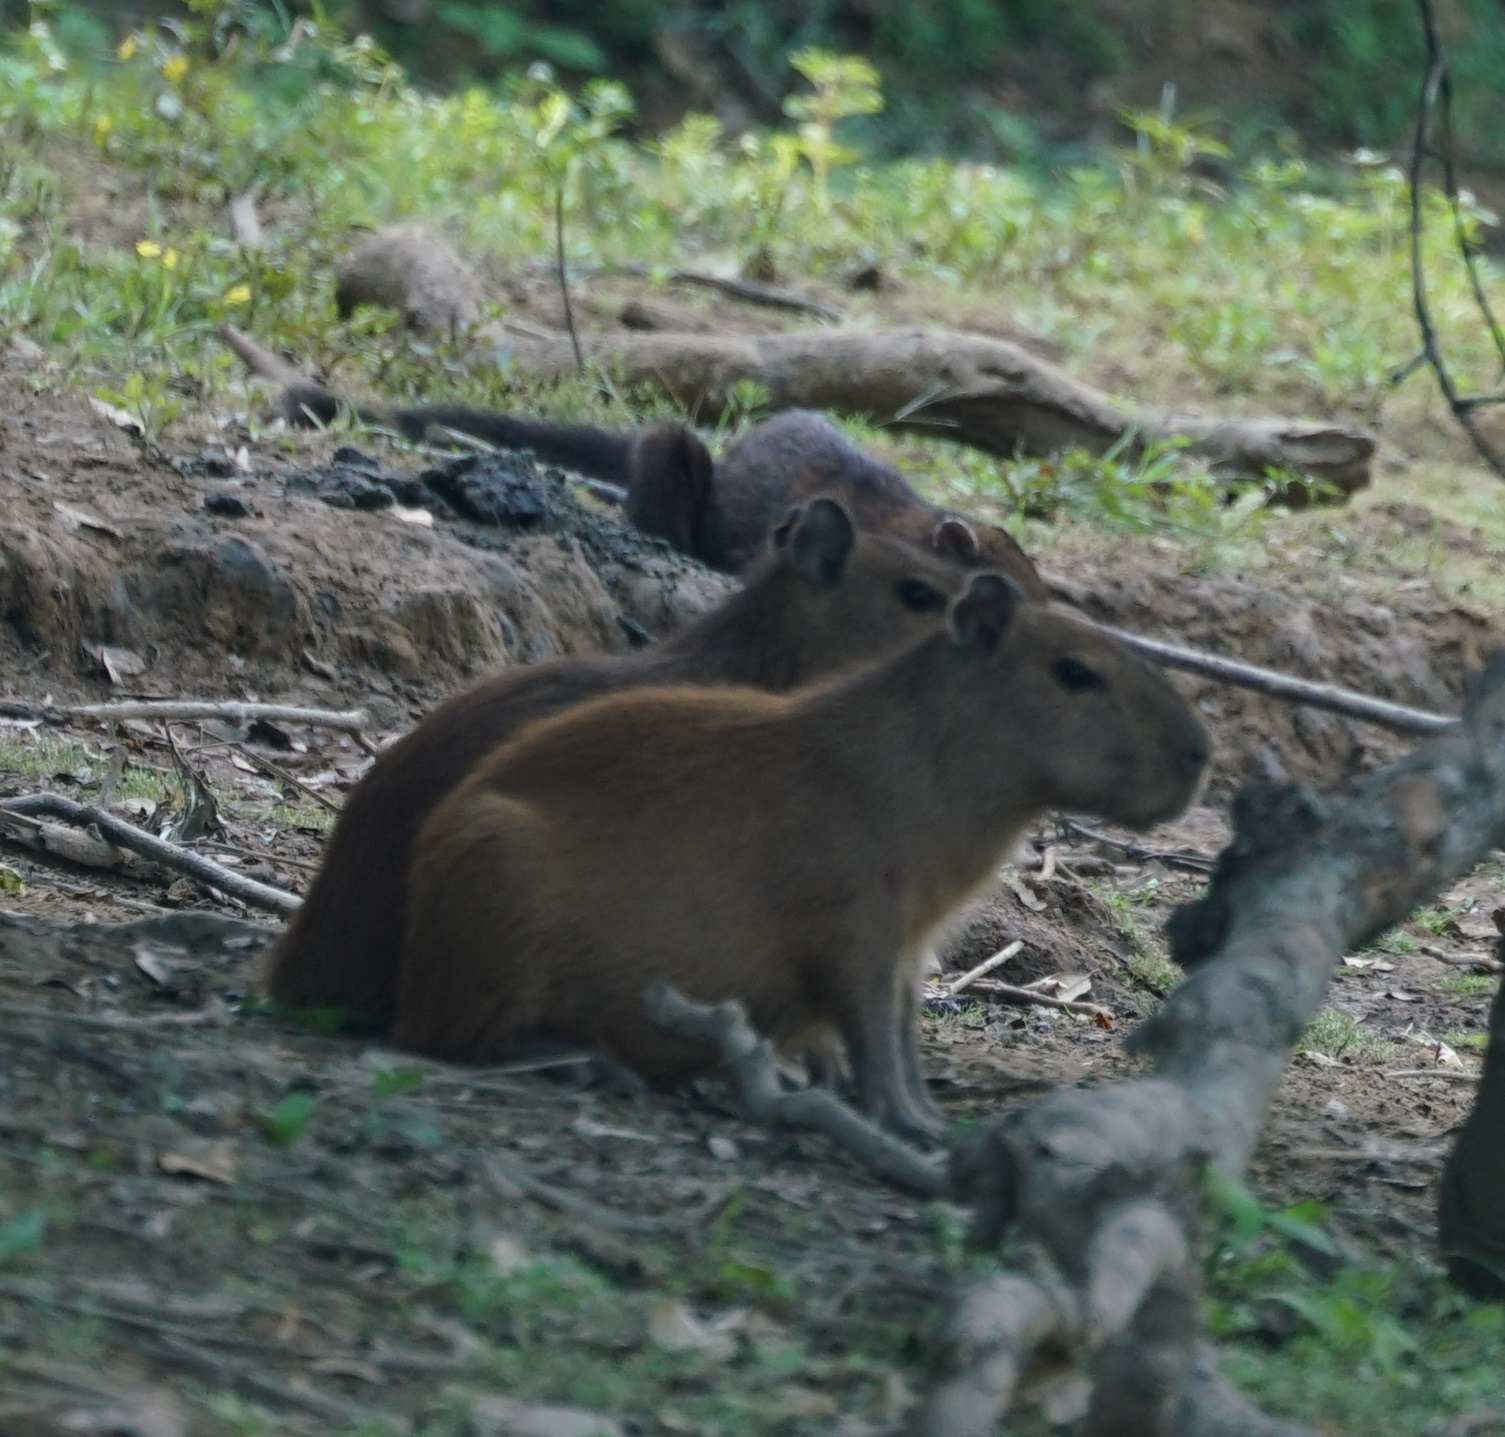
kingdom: Animalia
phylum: Chordata
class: Mammalia
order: Rodentia
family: Caviidae
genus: Hydrochoerus
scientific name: Hydrochoerus hydrochaeris
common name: Capybara
